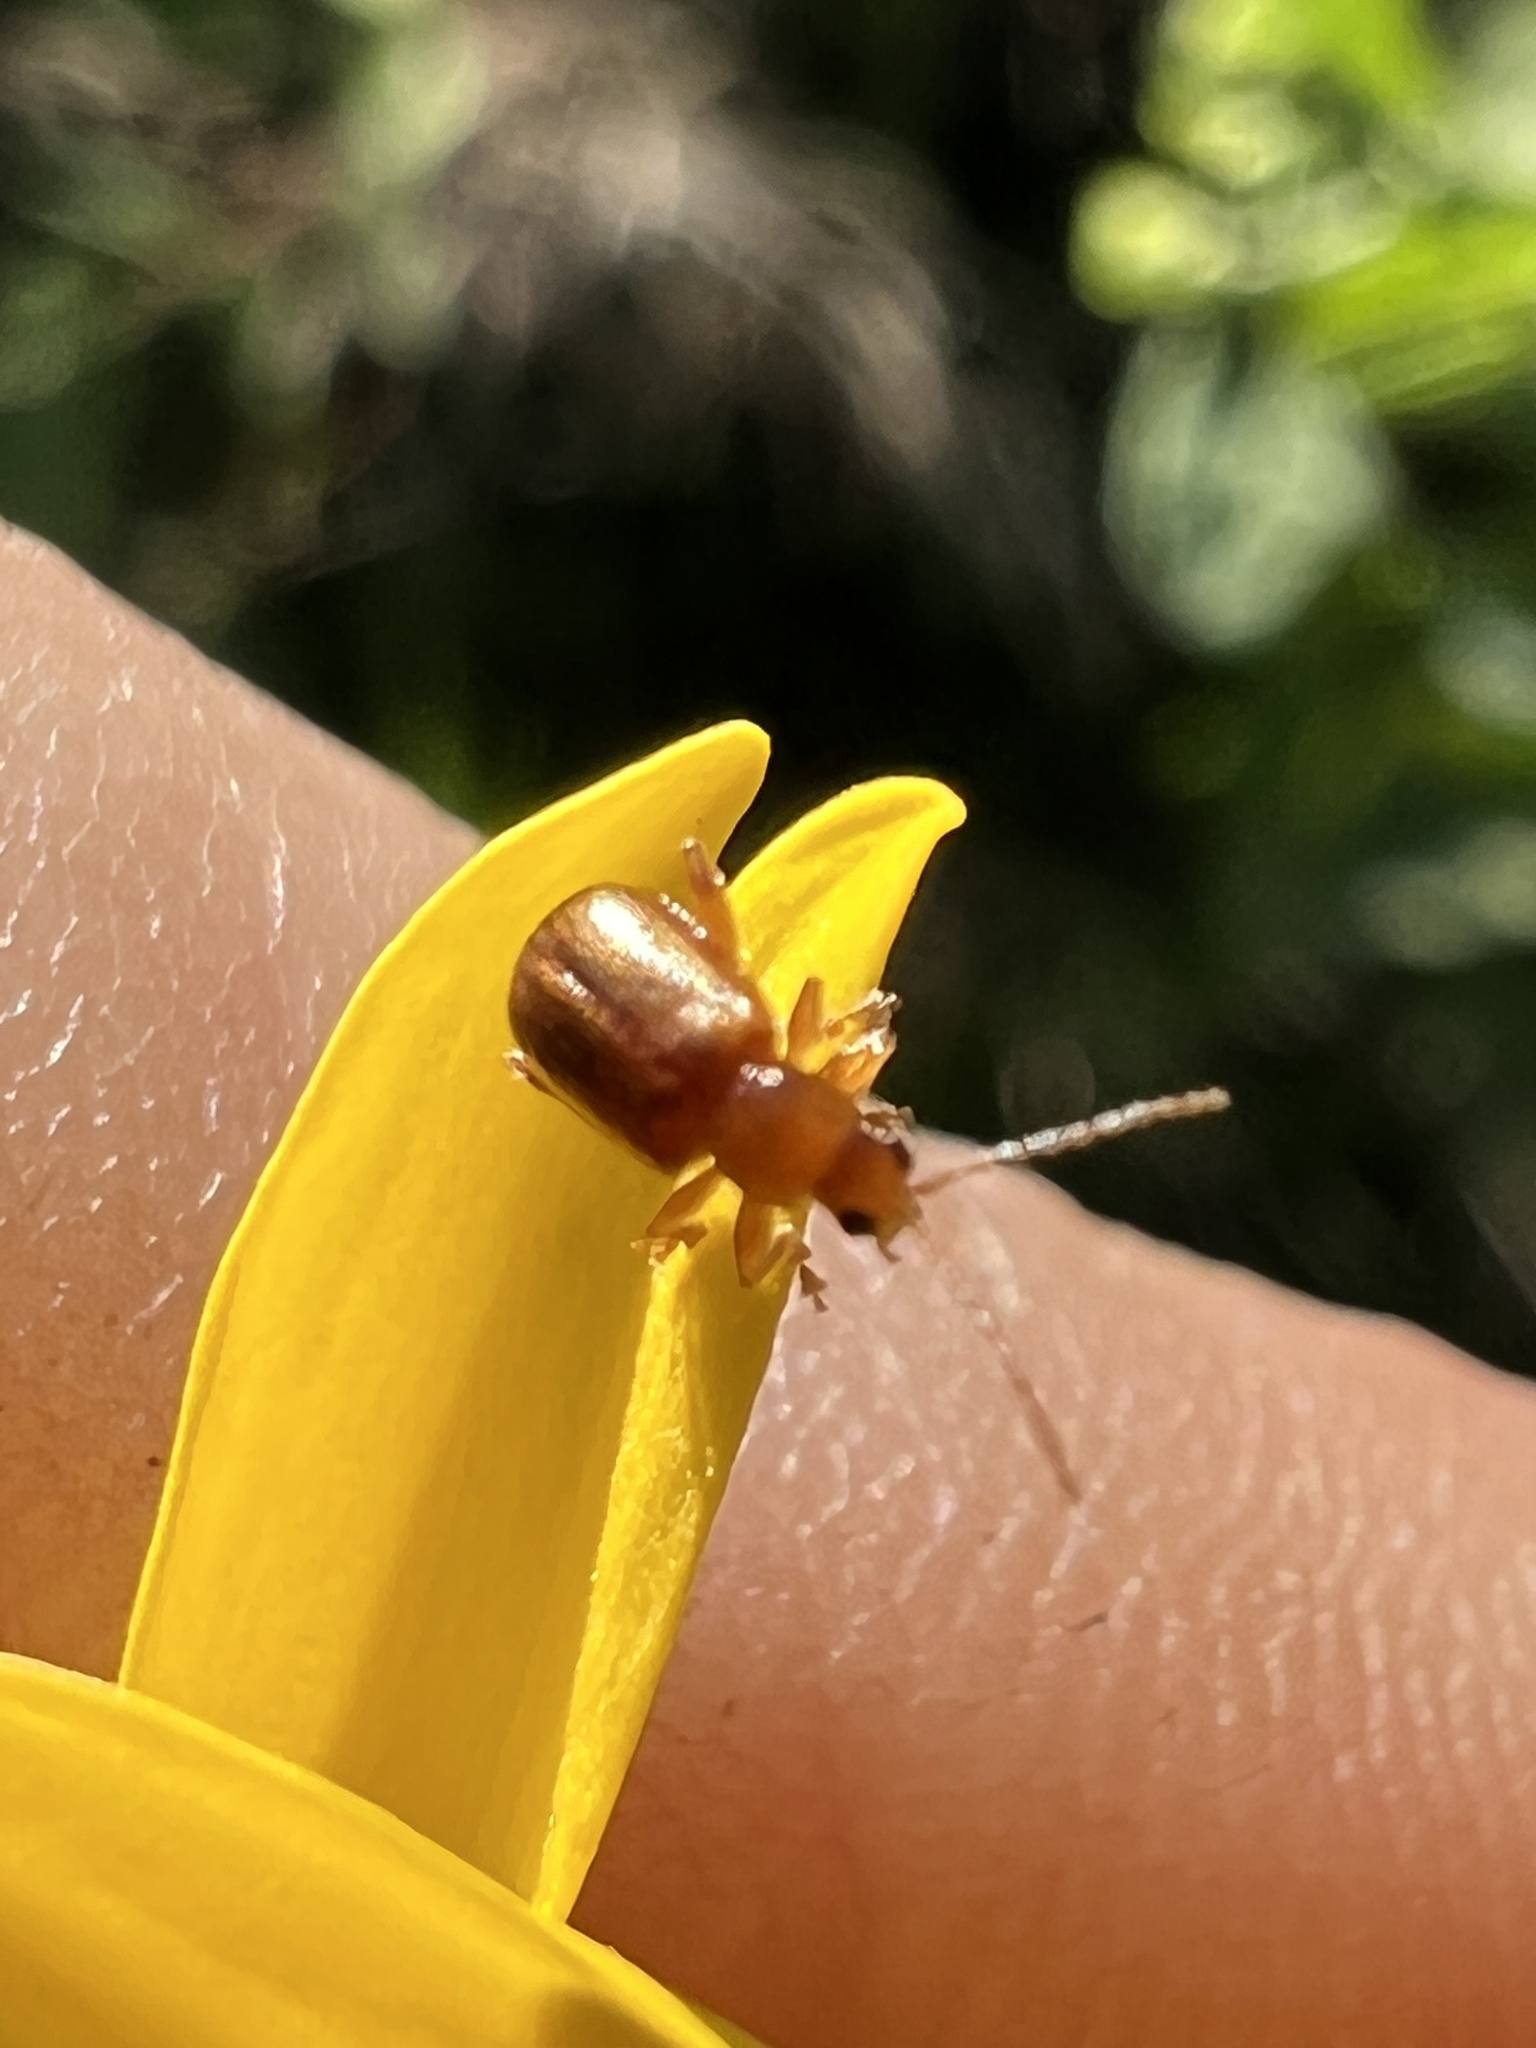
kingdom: Animalia
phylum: Arthropoda
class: Insecta
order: Coleoptera
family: Chrysomelidae
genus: Luperaltica
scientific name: Luperaltica nigripalpis
